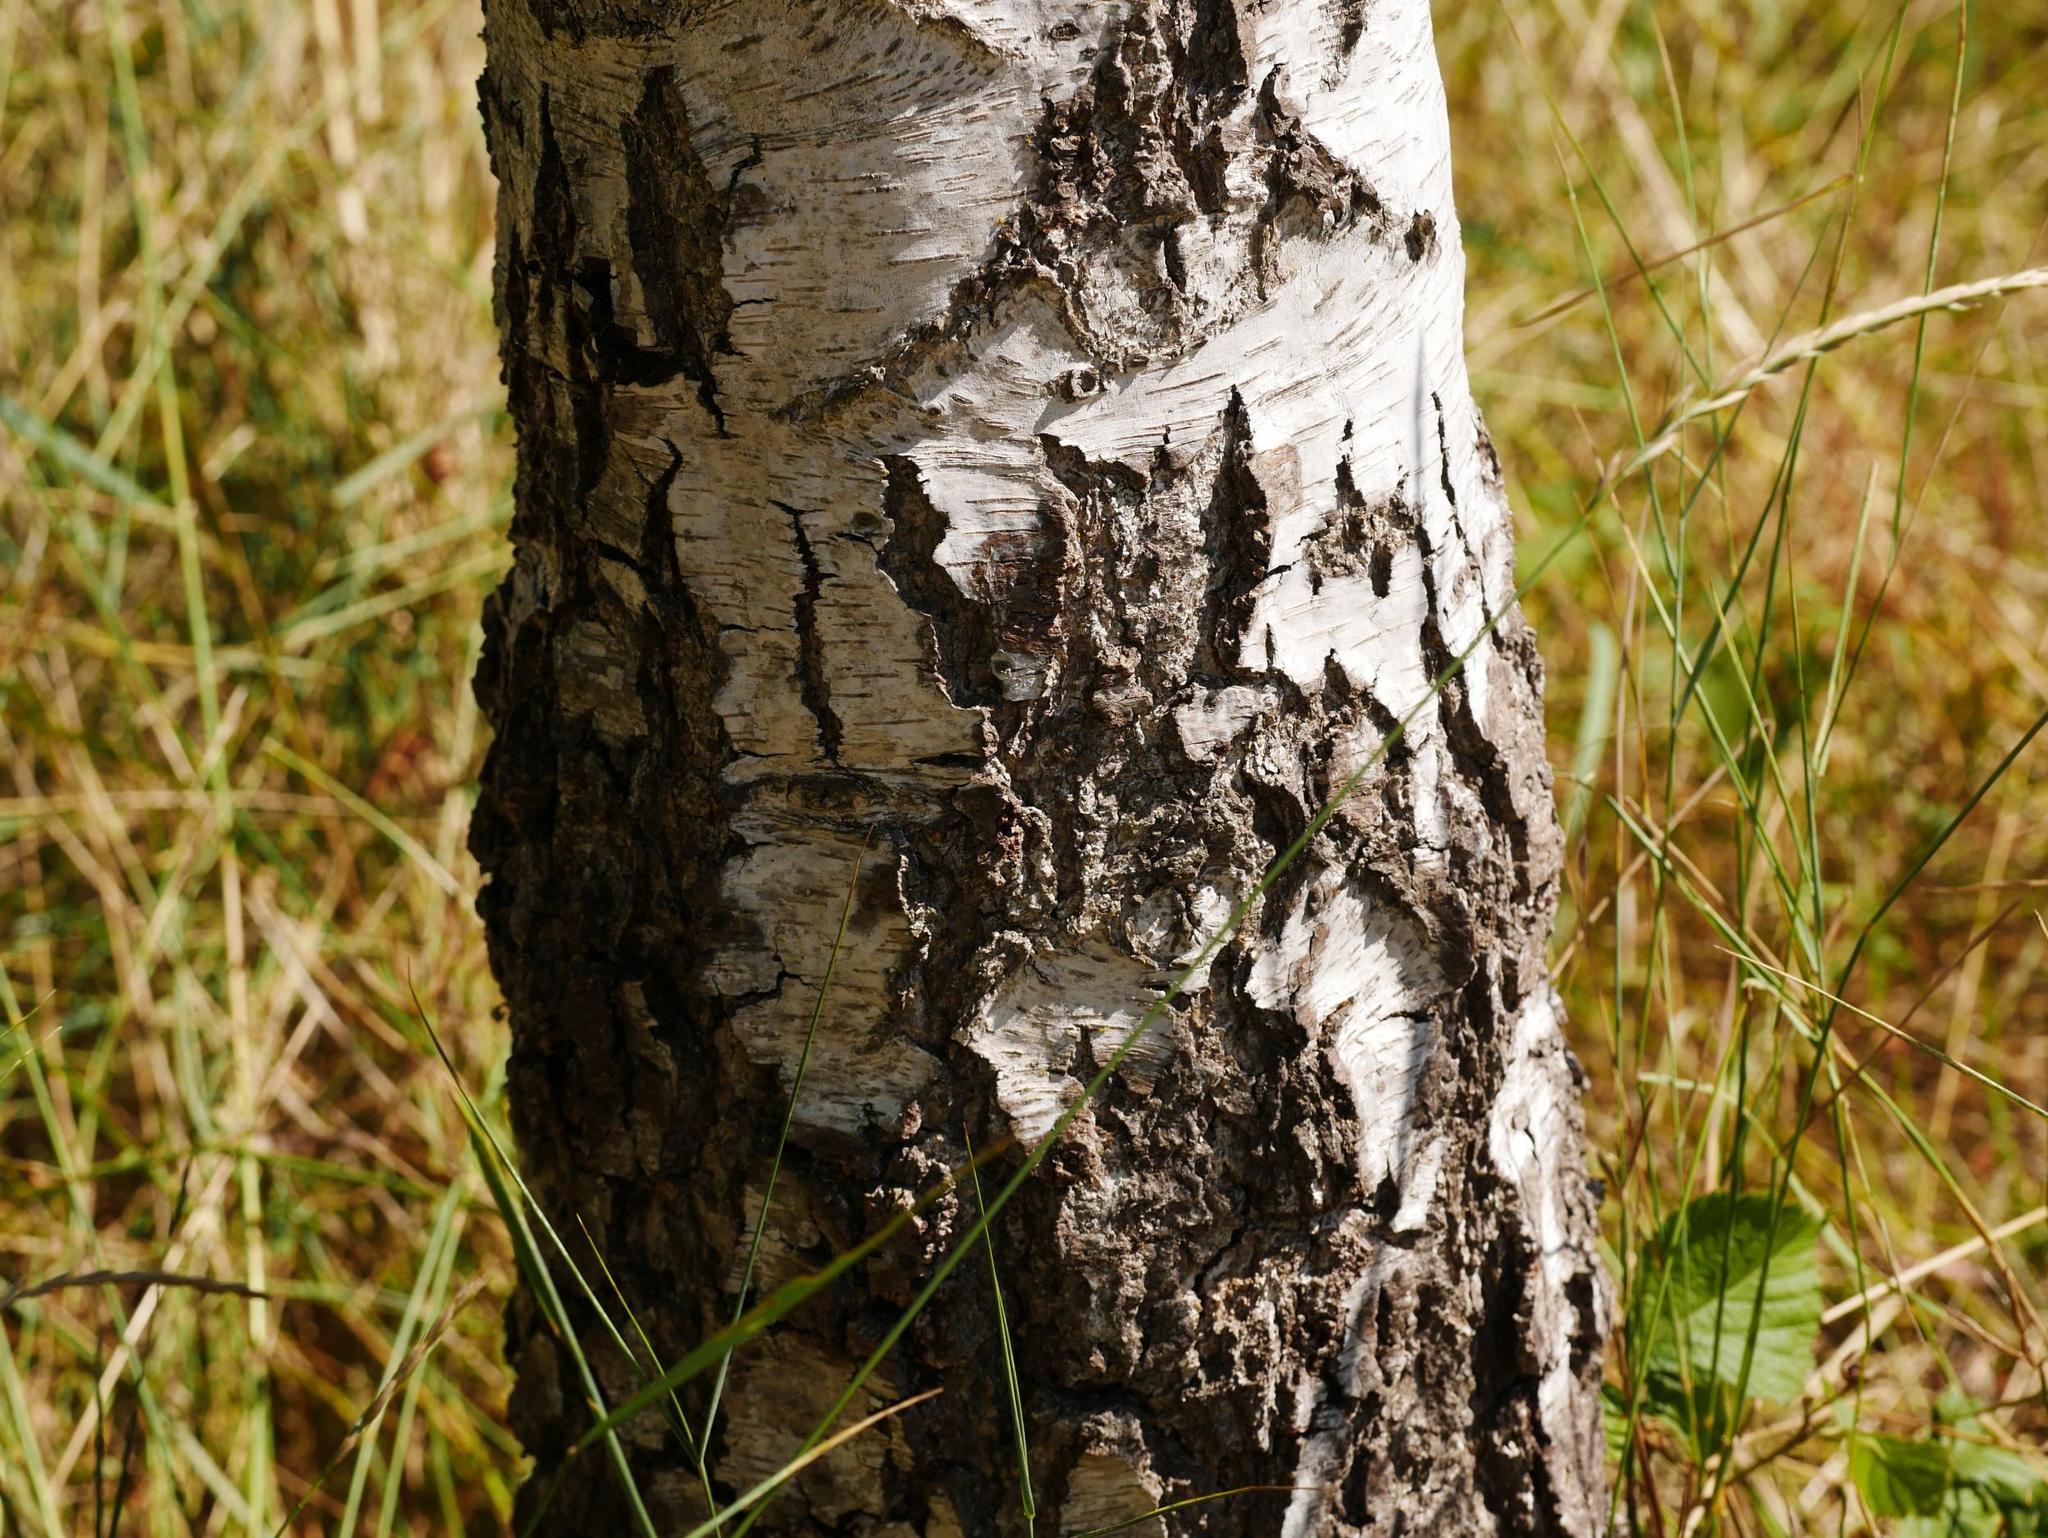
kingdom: Plantae
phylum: Tracheophyta
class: Magnoliopsida
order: Fagales
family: Betulaceae
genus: Betula
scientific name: Betula pendula
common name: Silver birch
